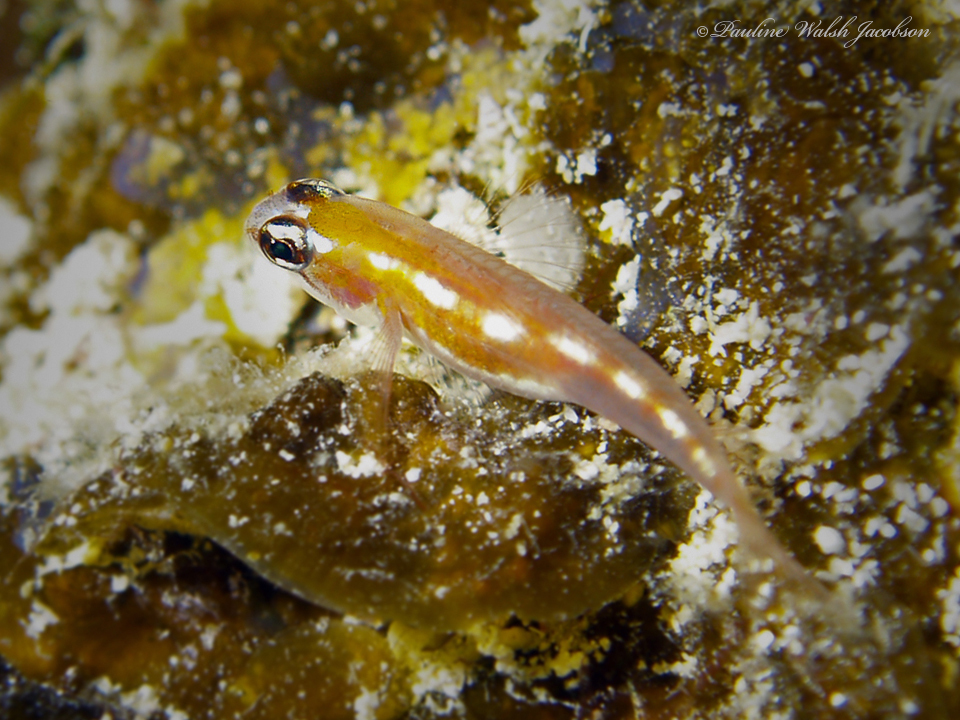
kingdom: Animalia
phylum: Chordata
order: Perciformes
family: Gobiidae
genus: Coryphopterus
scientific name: Coryphopterus personatus
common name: Masked goby
